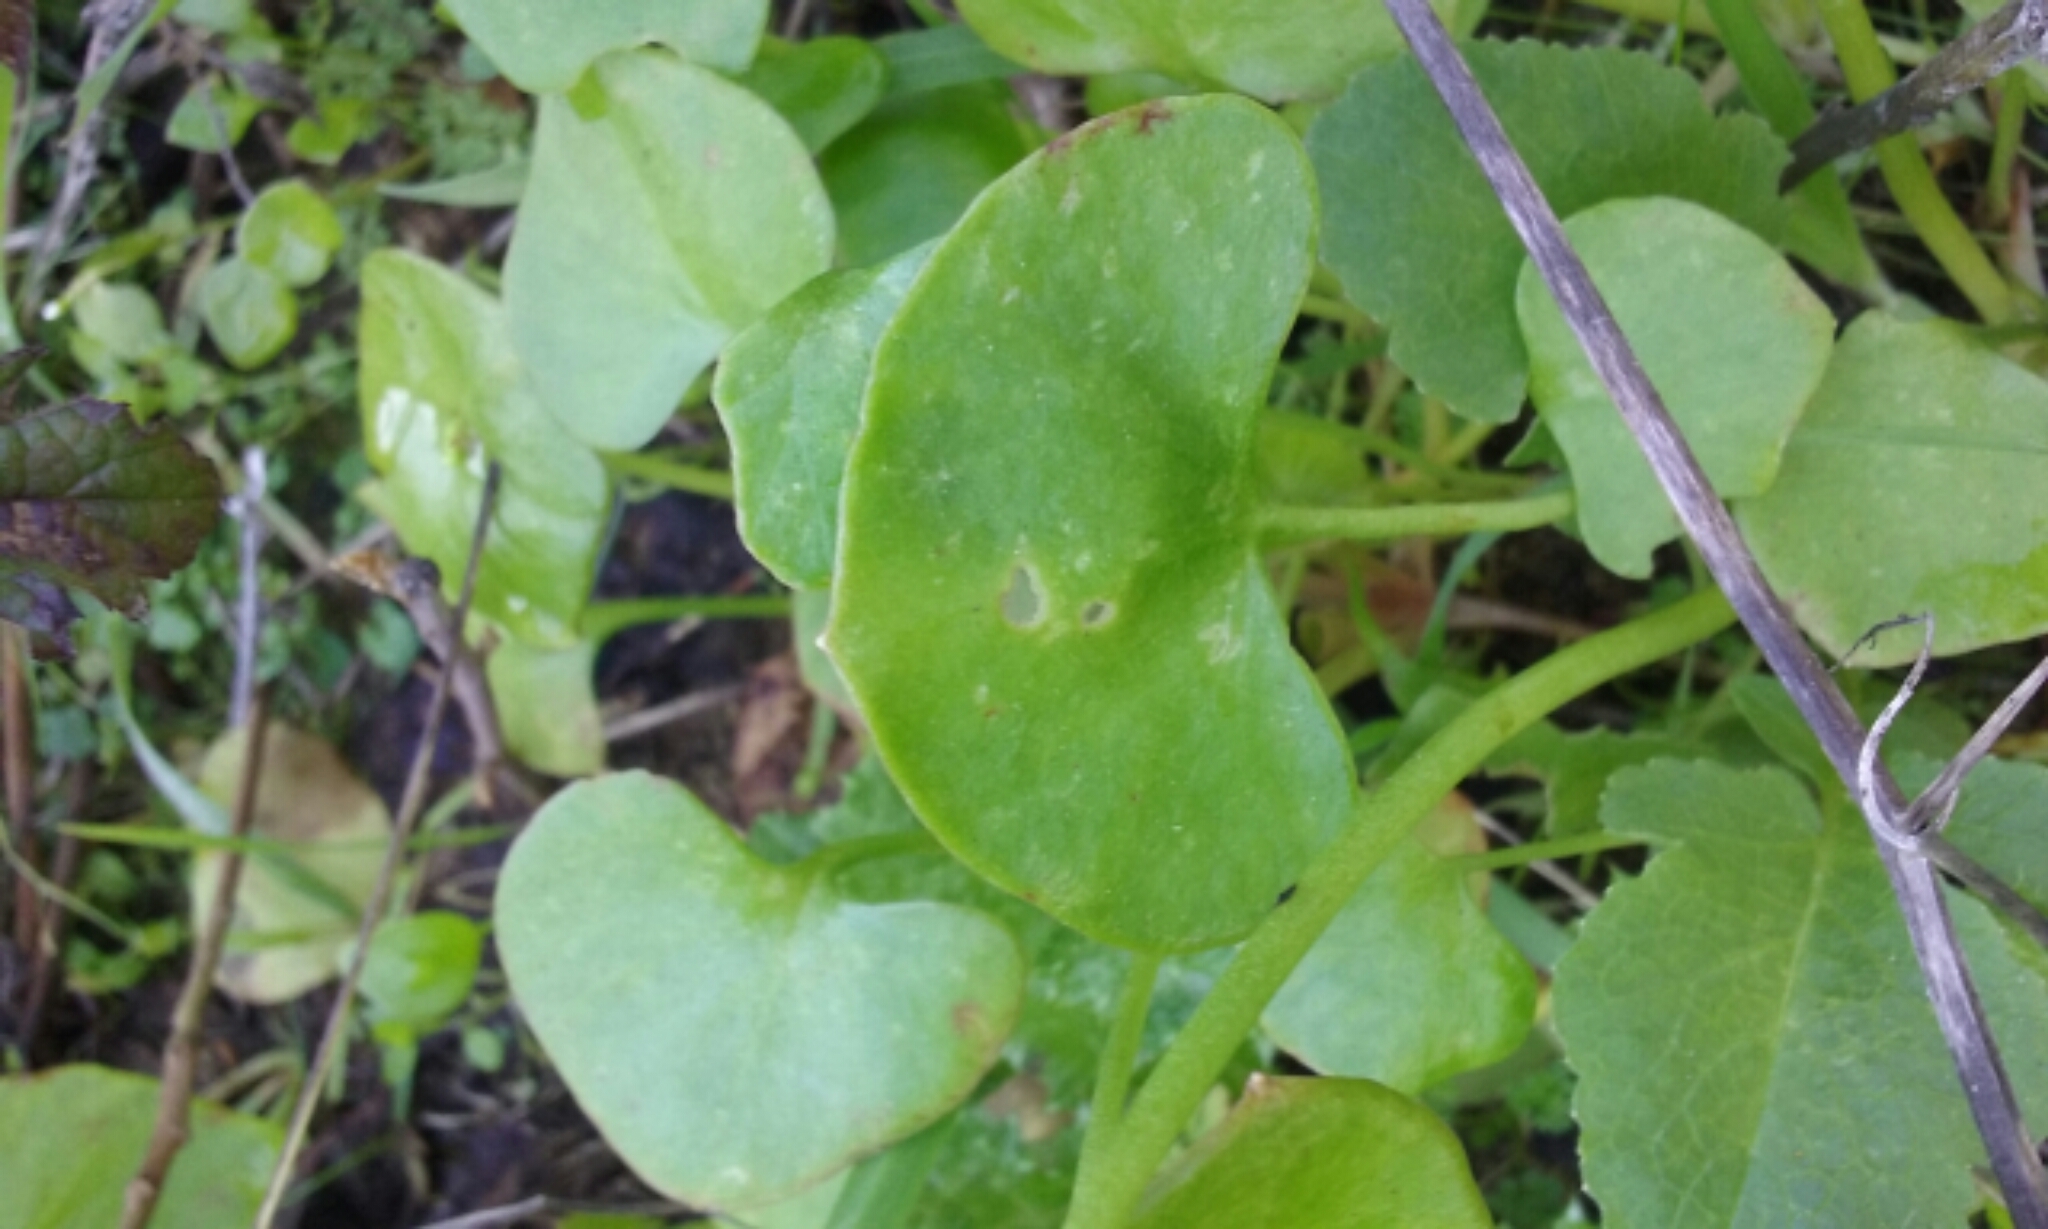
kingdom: Plantae
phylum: Tracheophyta
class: Magnoliopsida
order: Caryophyllales
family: Montiaceae
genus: Claytonia
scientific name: Claytonia perfoliata
